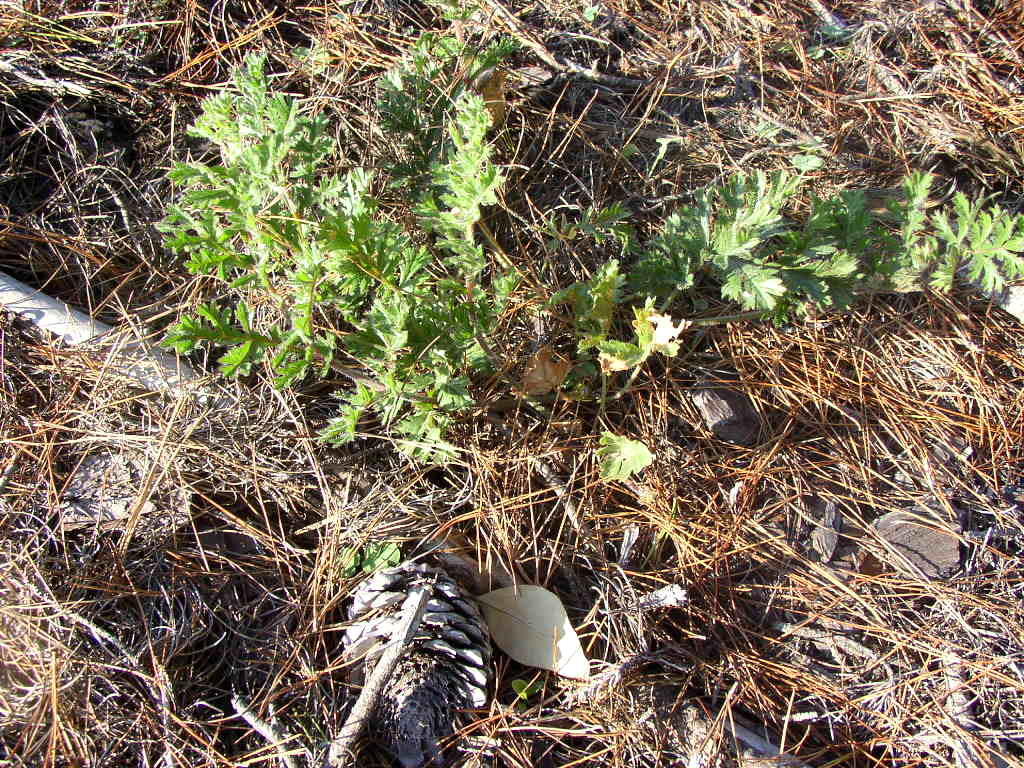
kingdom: Plantae
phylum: Tracheophyta
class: Magnoliopsida
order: Geraniales
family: Geraniaceae
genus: Pelargonium
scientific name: Pelargonium triste
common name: Night-scent pelargonium
